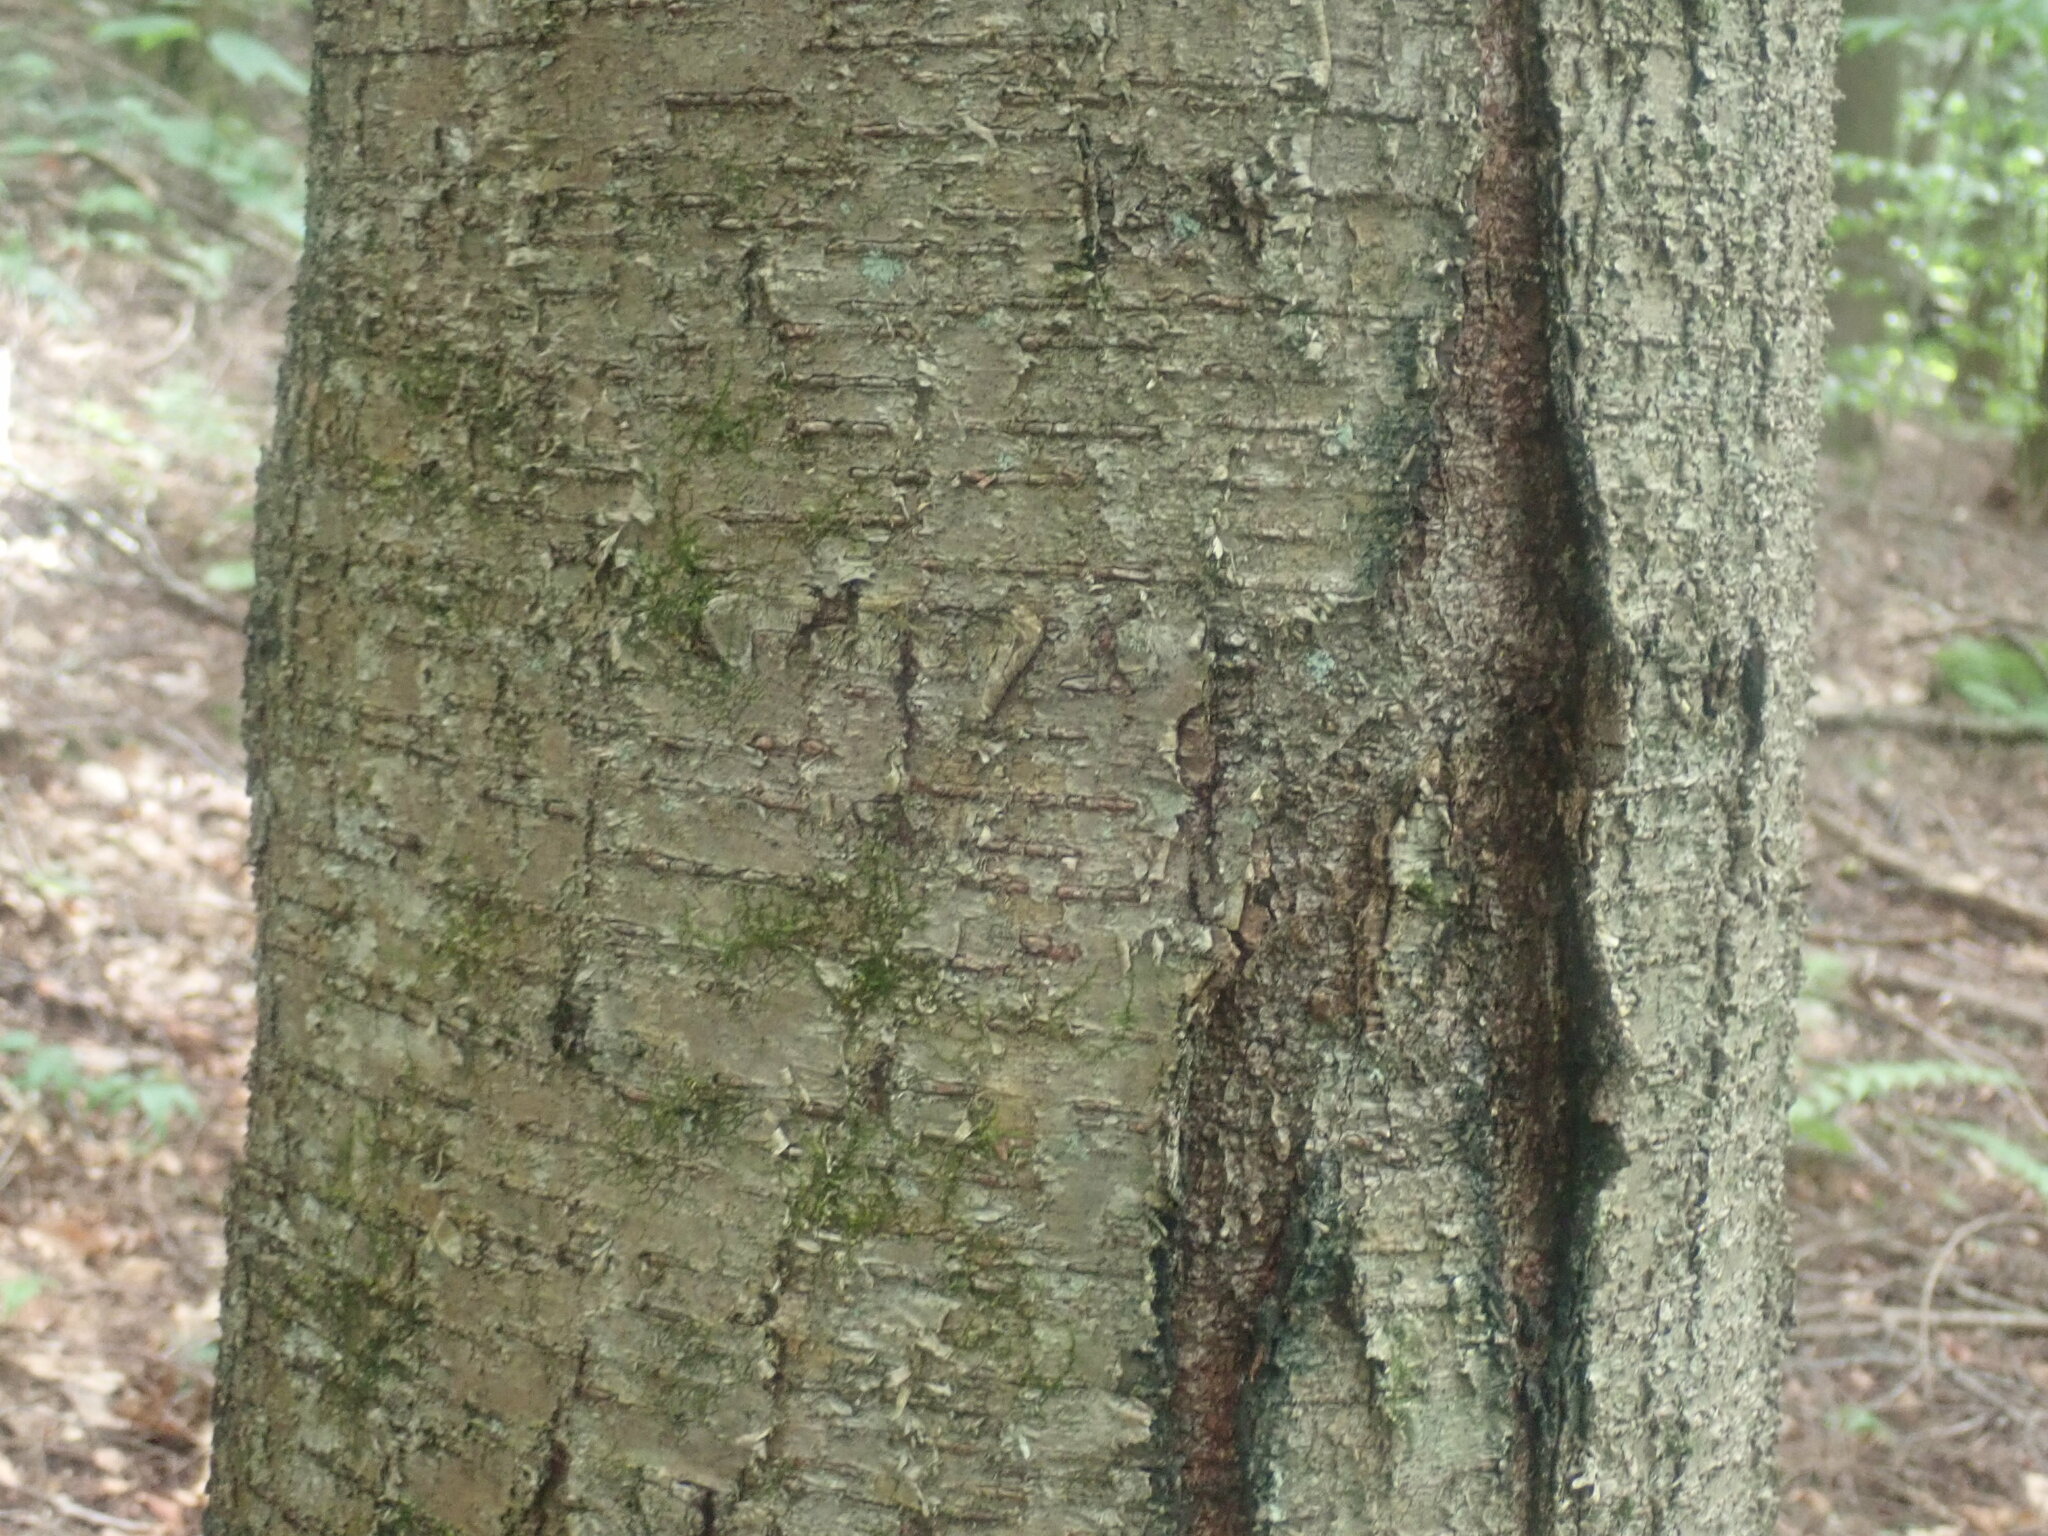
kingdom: Plantae
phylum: Tracheophyta
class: Magnoliopsida
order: Fagales
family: Betulaceae
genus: Betula
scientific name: Betula lenta
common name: Black birch
